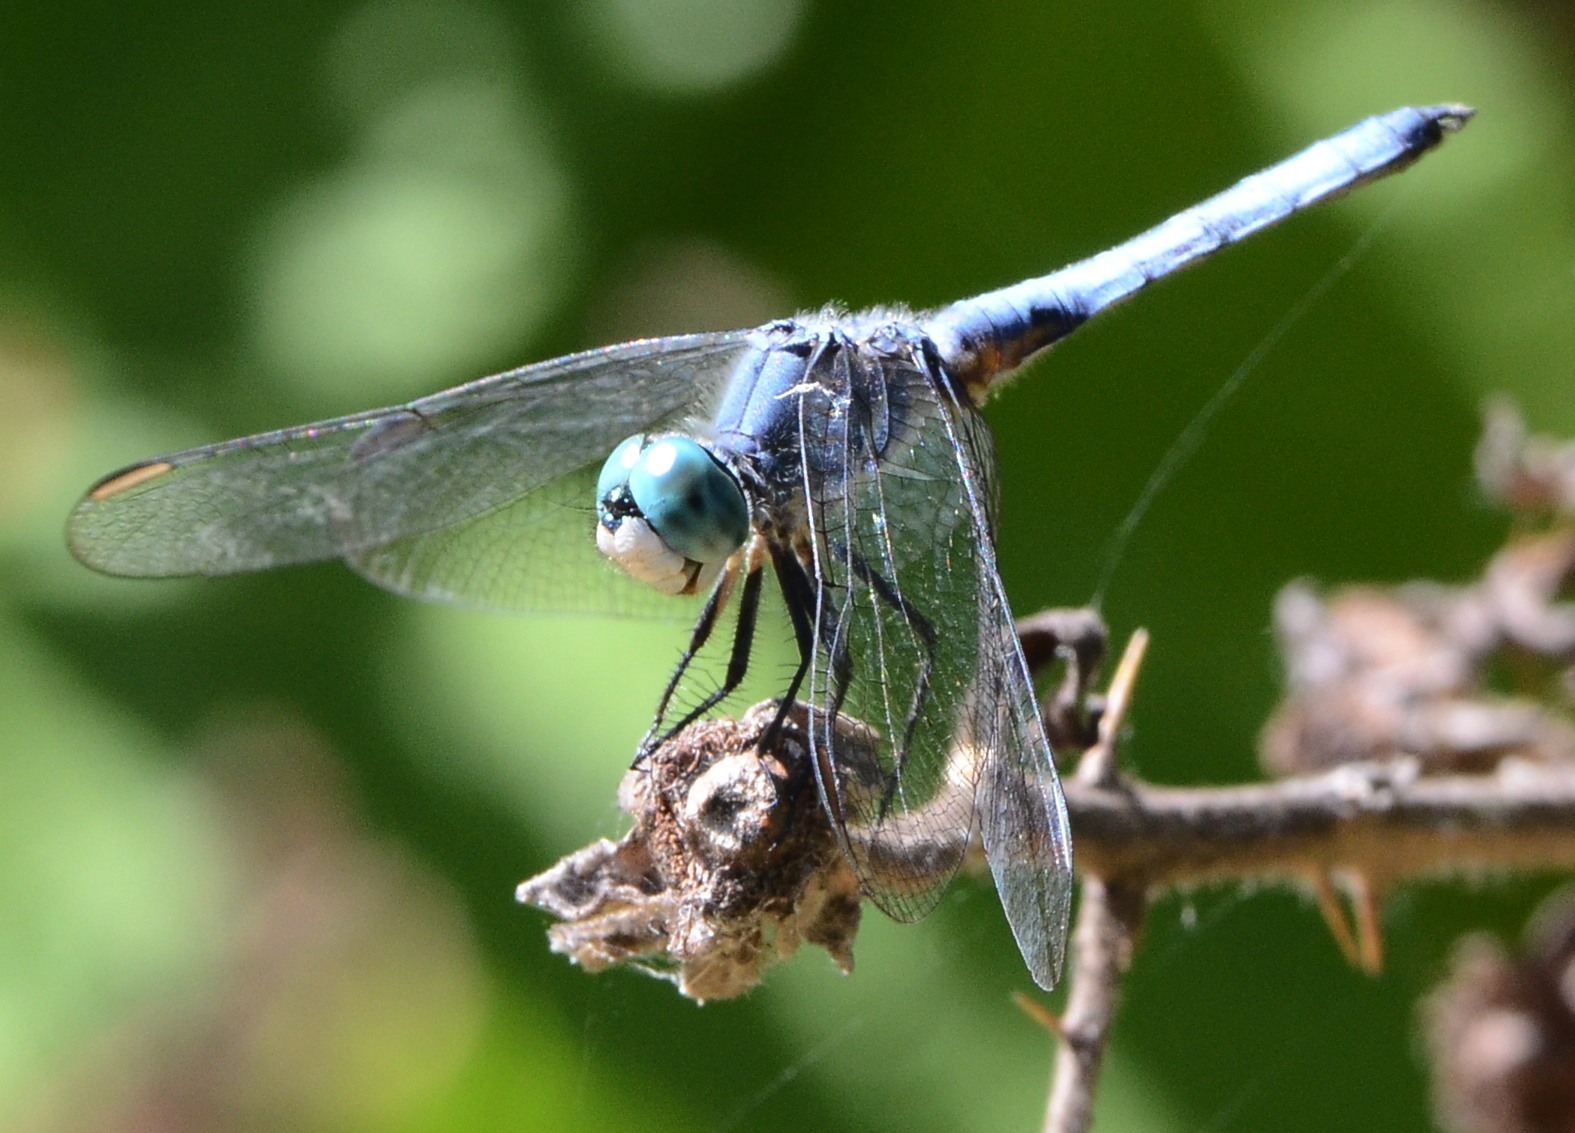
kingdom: Animalia
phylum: Arthropoda
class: Insecta
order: Odonata
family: Libellulidae
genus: Pachydiplax
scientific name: Pachydiplax longipennis
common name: Blue dasher
